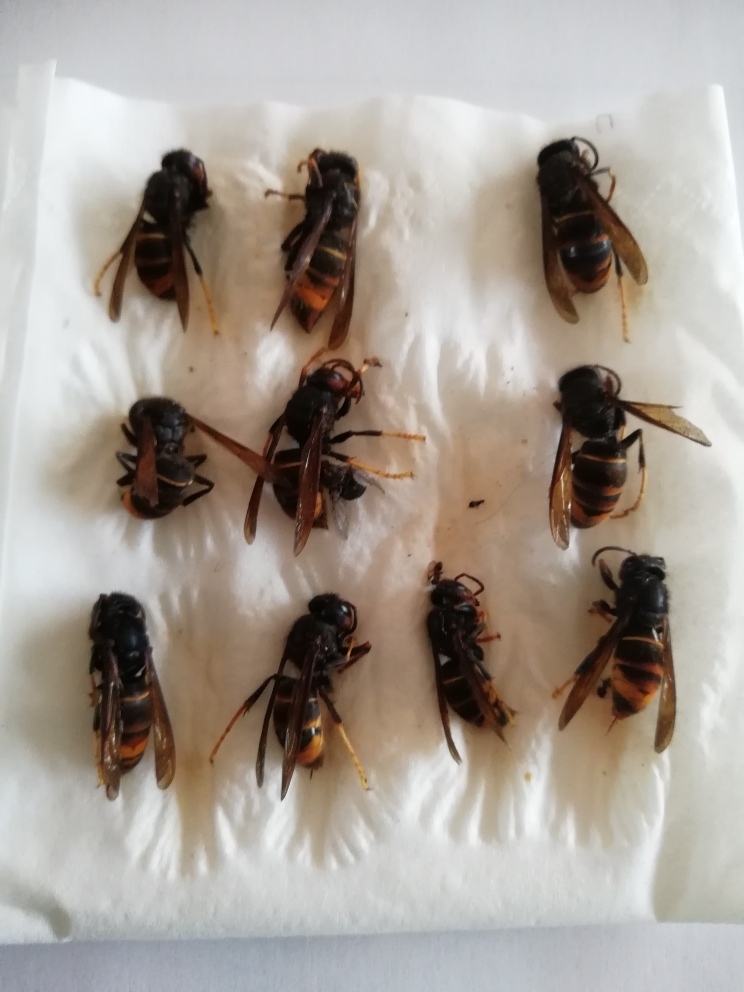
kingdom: Animalia
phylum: Arthropoda
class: Insecta
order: Hymenoptera
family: Vespidae
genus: Vespa
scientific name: Vespa velutina
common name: Asian hornet
